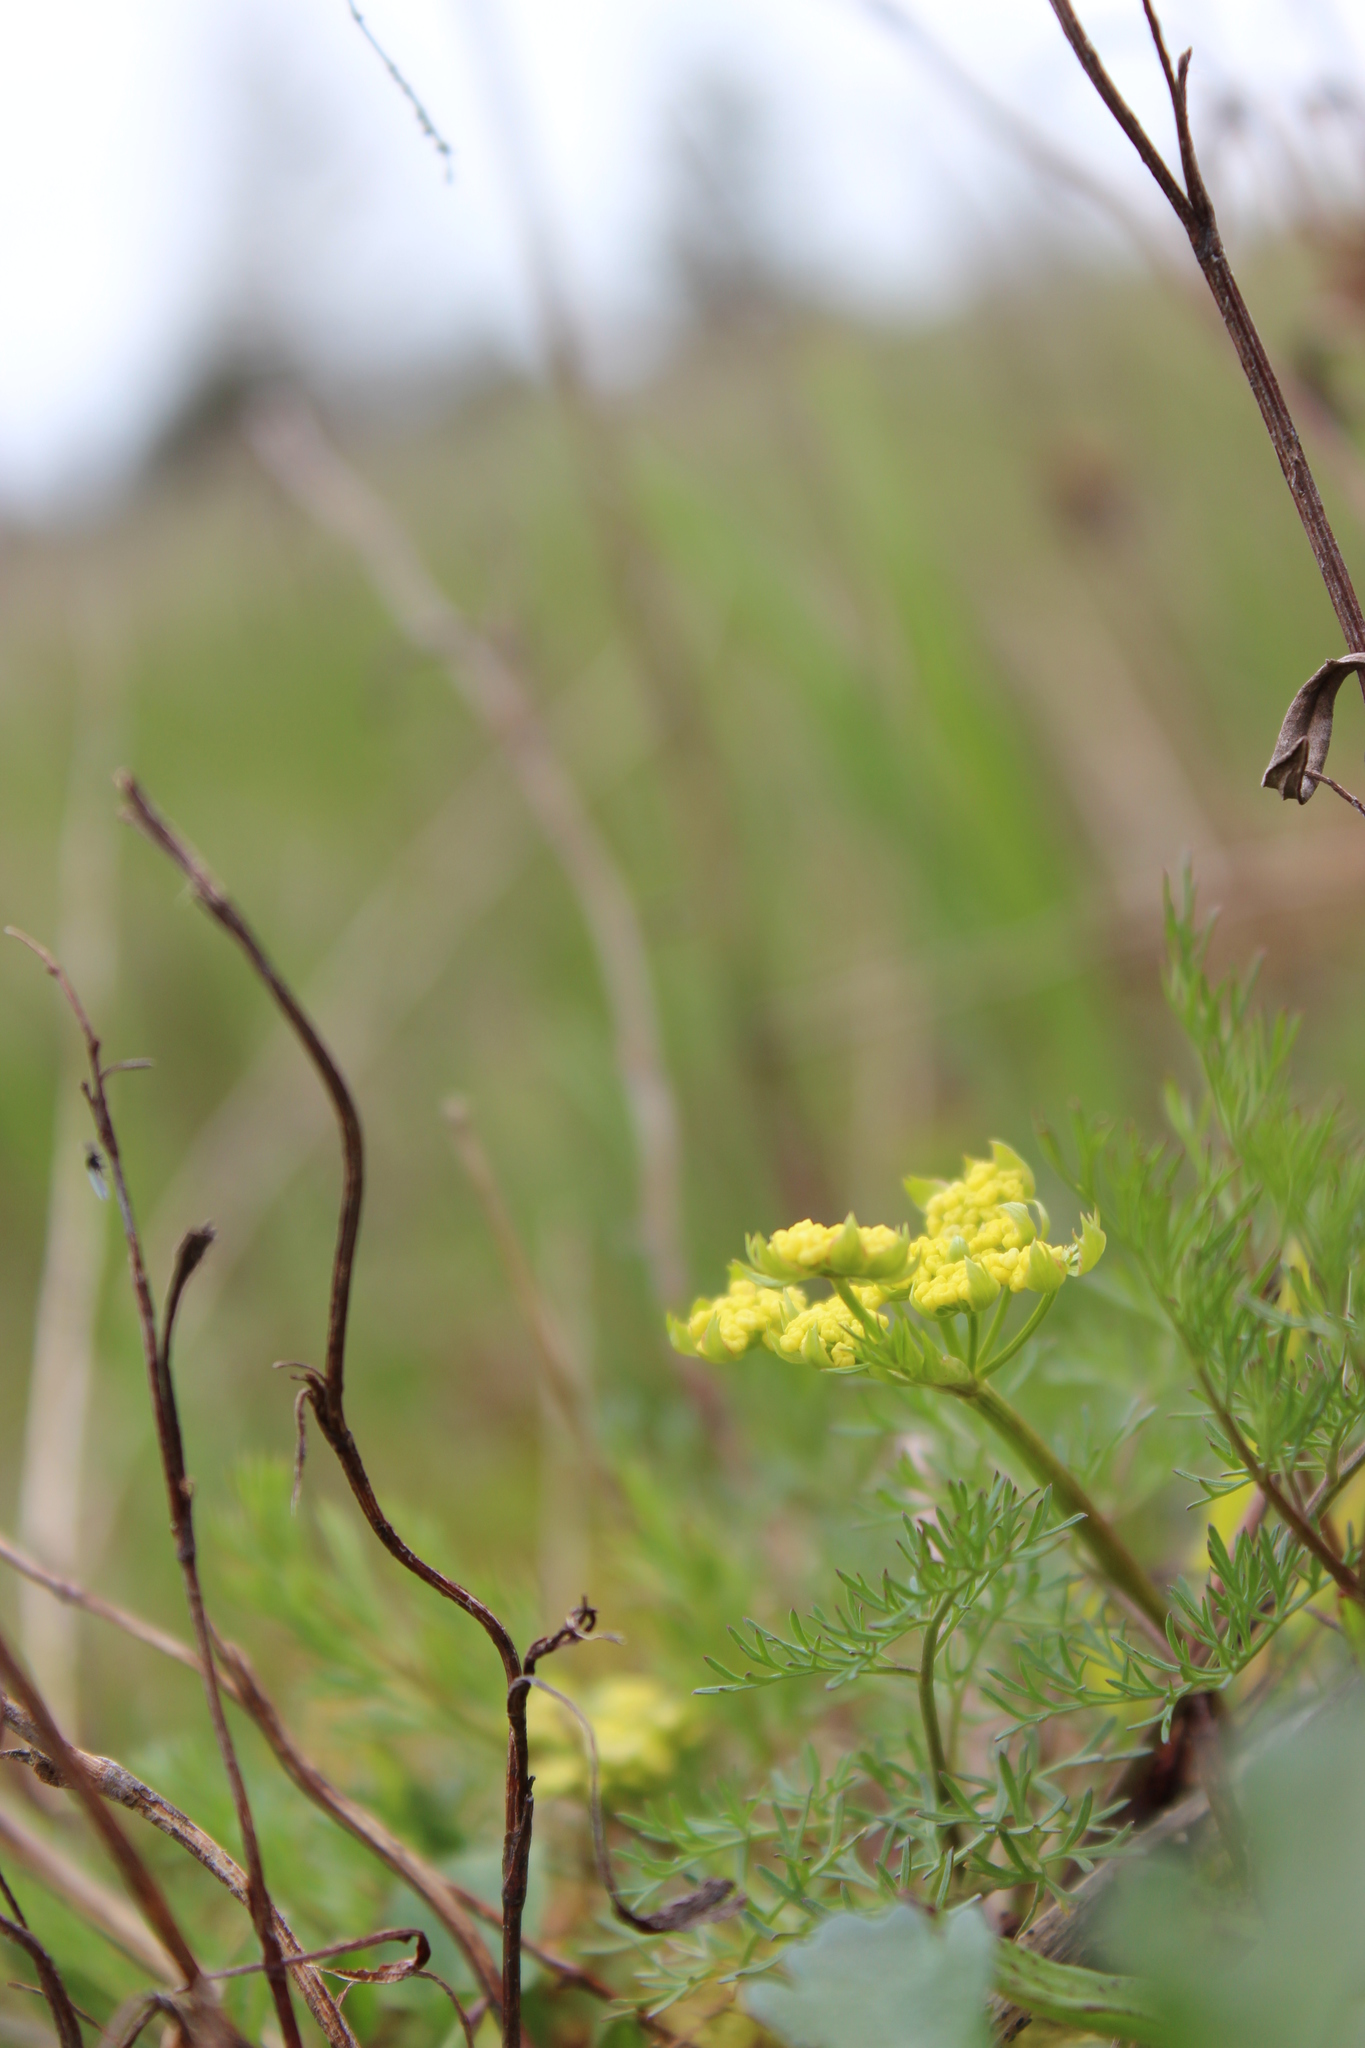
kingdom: Plantae
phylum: Tracheophyta
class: Magnoliopsida
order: Apiales
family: Apiaceae
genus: Lomatium
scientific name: Lomatium utriculatum
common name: Fine-leaf desert-parsley
